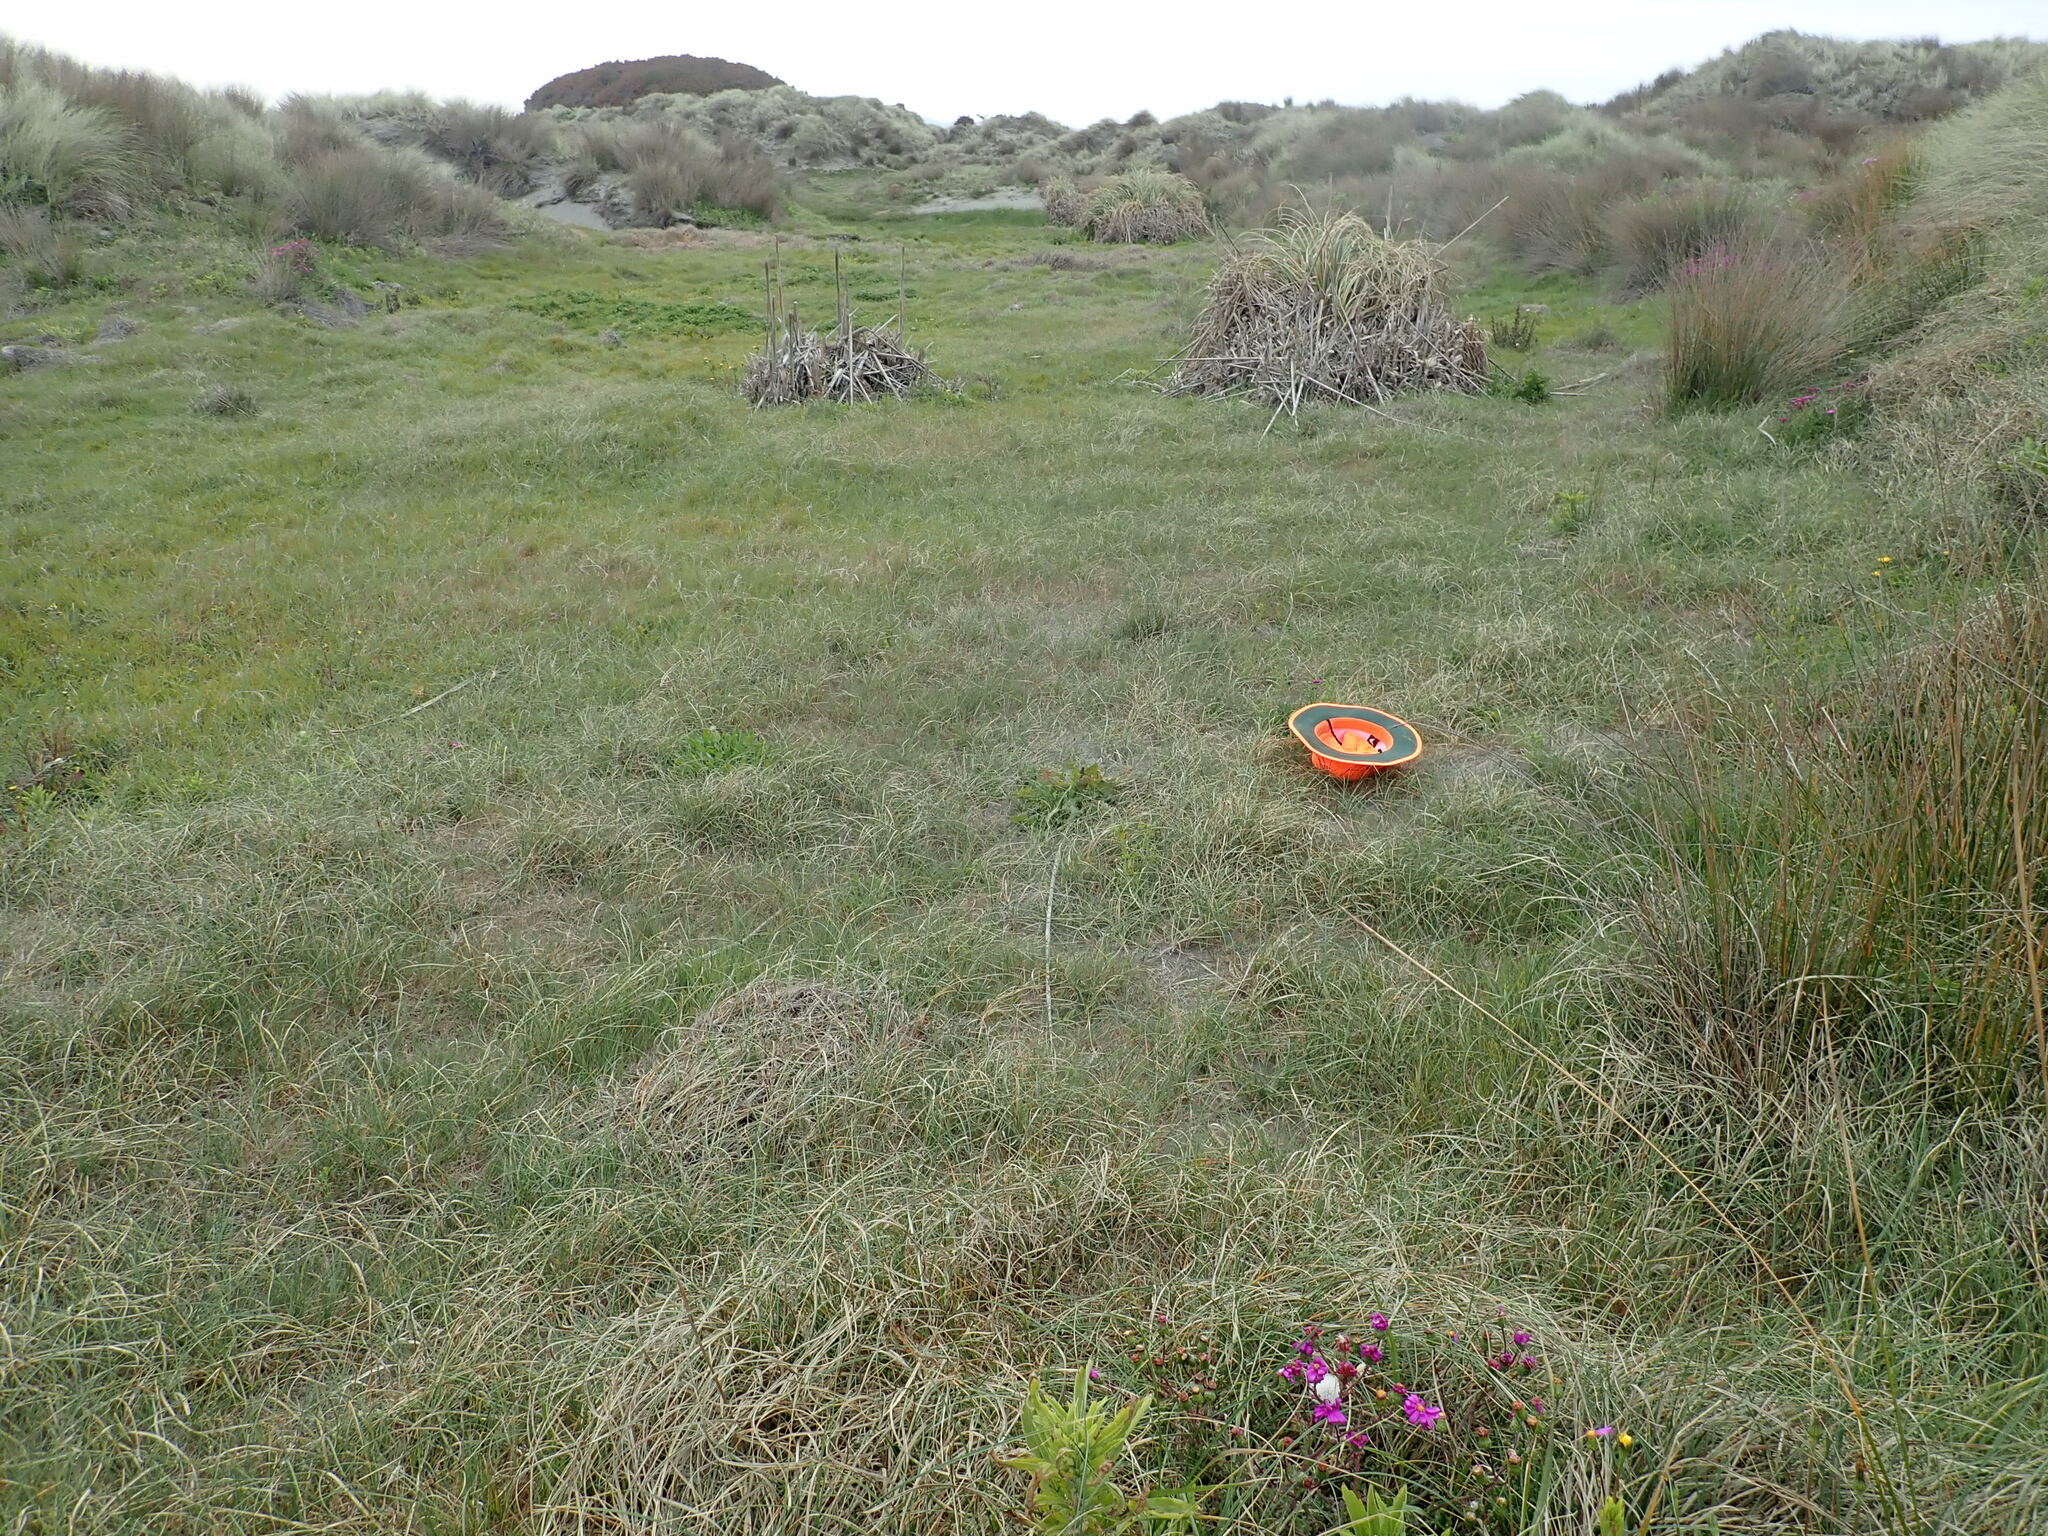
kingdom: Plantae
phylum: Tracheophyta
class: Liliopsida
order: Poales
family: Cyperaceae
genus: Carex
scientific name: Carex pumila
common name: Dwarf sedge
